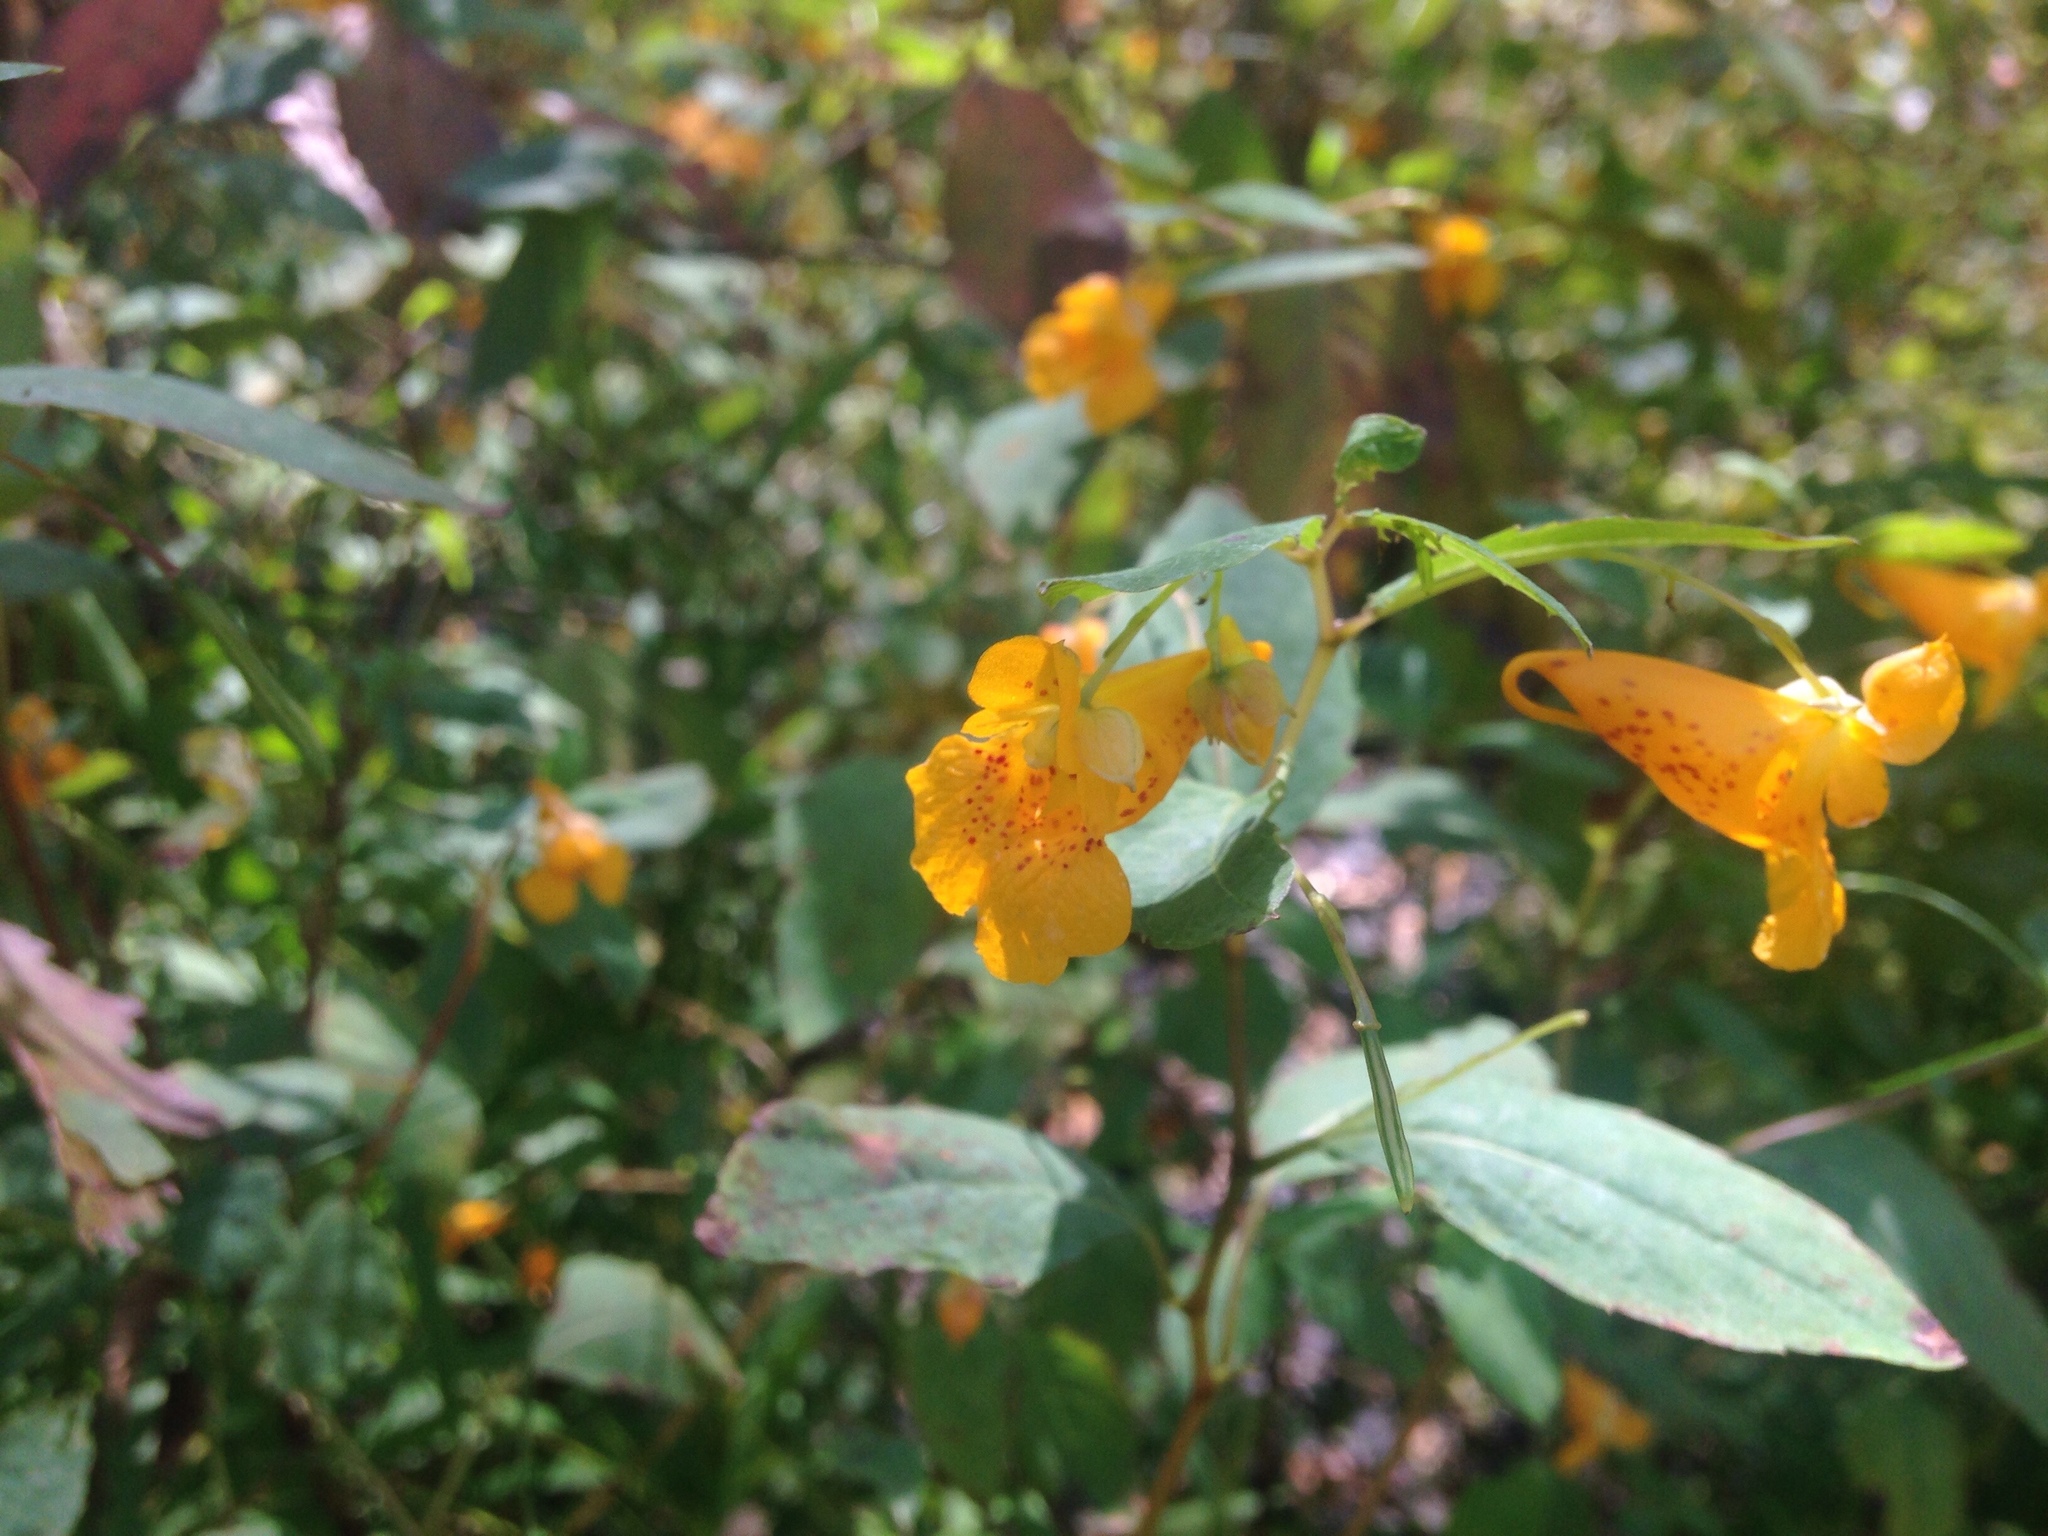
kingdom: Plantae
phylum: Tracheophyta
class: Magnoliopsida
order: Ericales
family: Balsaminaceae
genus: Impatiens
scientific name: Impatiens capensis
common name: Orange balsam
